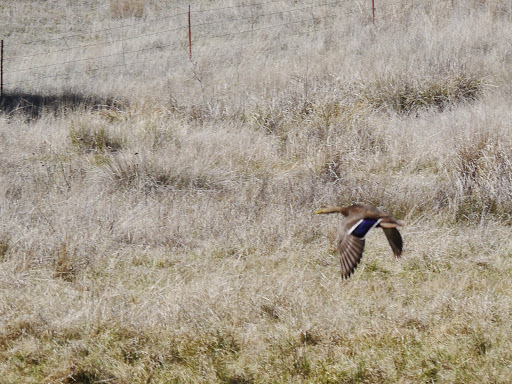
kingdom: Animalia
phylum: Chordata
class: Aves
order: Anseriformes
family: Anatidae
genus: Anas
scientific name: Anas diazi
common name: Mexican duck
